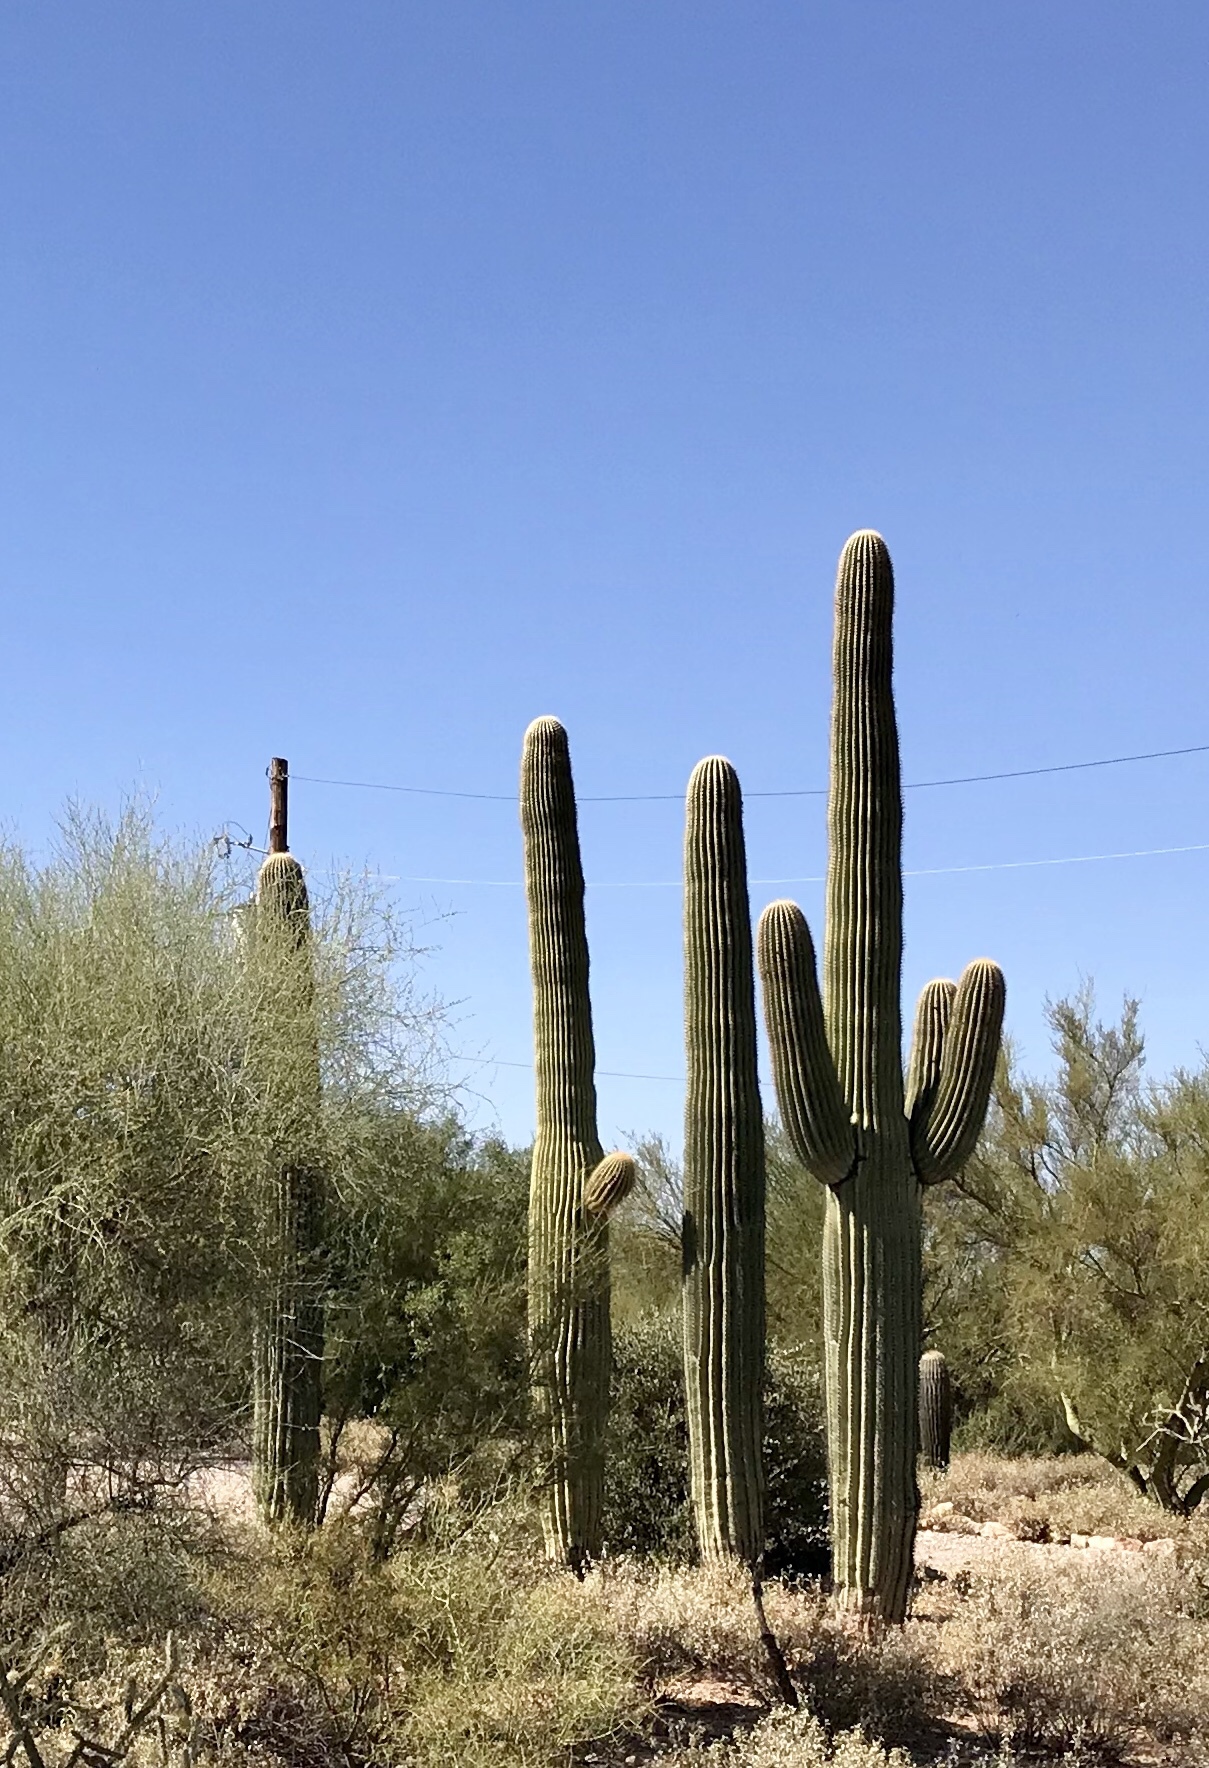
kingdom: Plantae
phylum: Tracheophyta
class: Magnoliopsida
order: Caryophyllales
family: Cactaceae
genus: Carnegiea
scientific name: Carnegiea gigantea
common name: Saguaro
